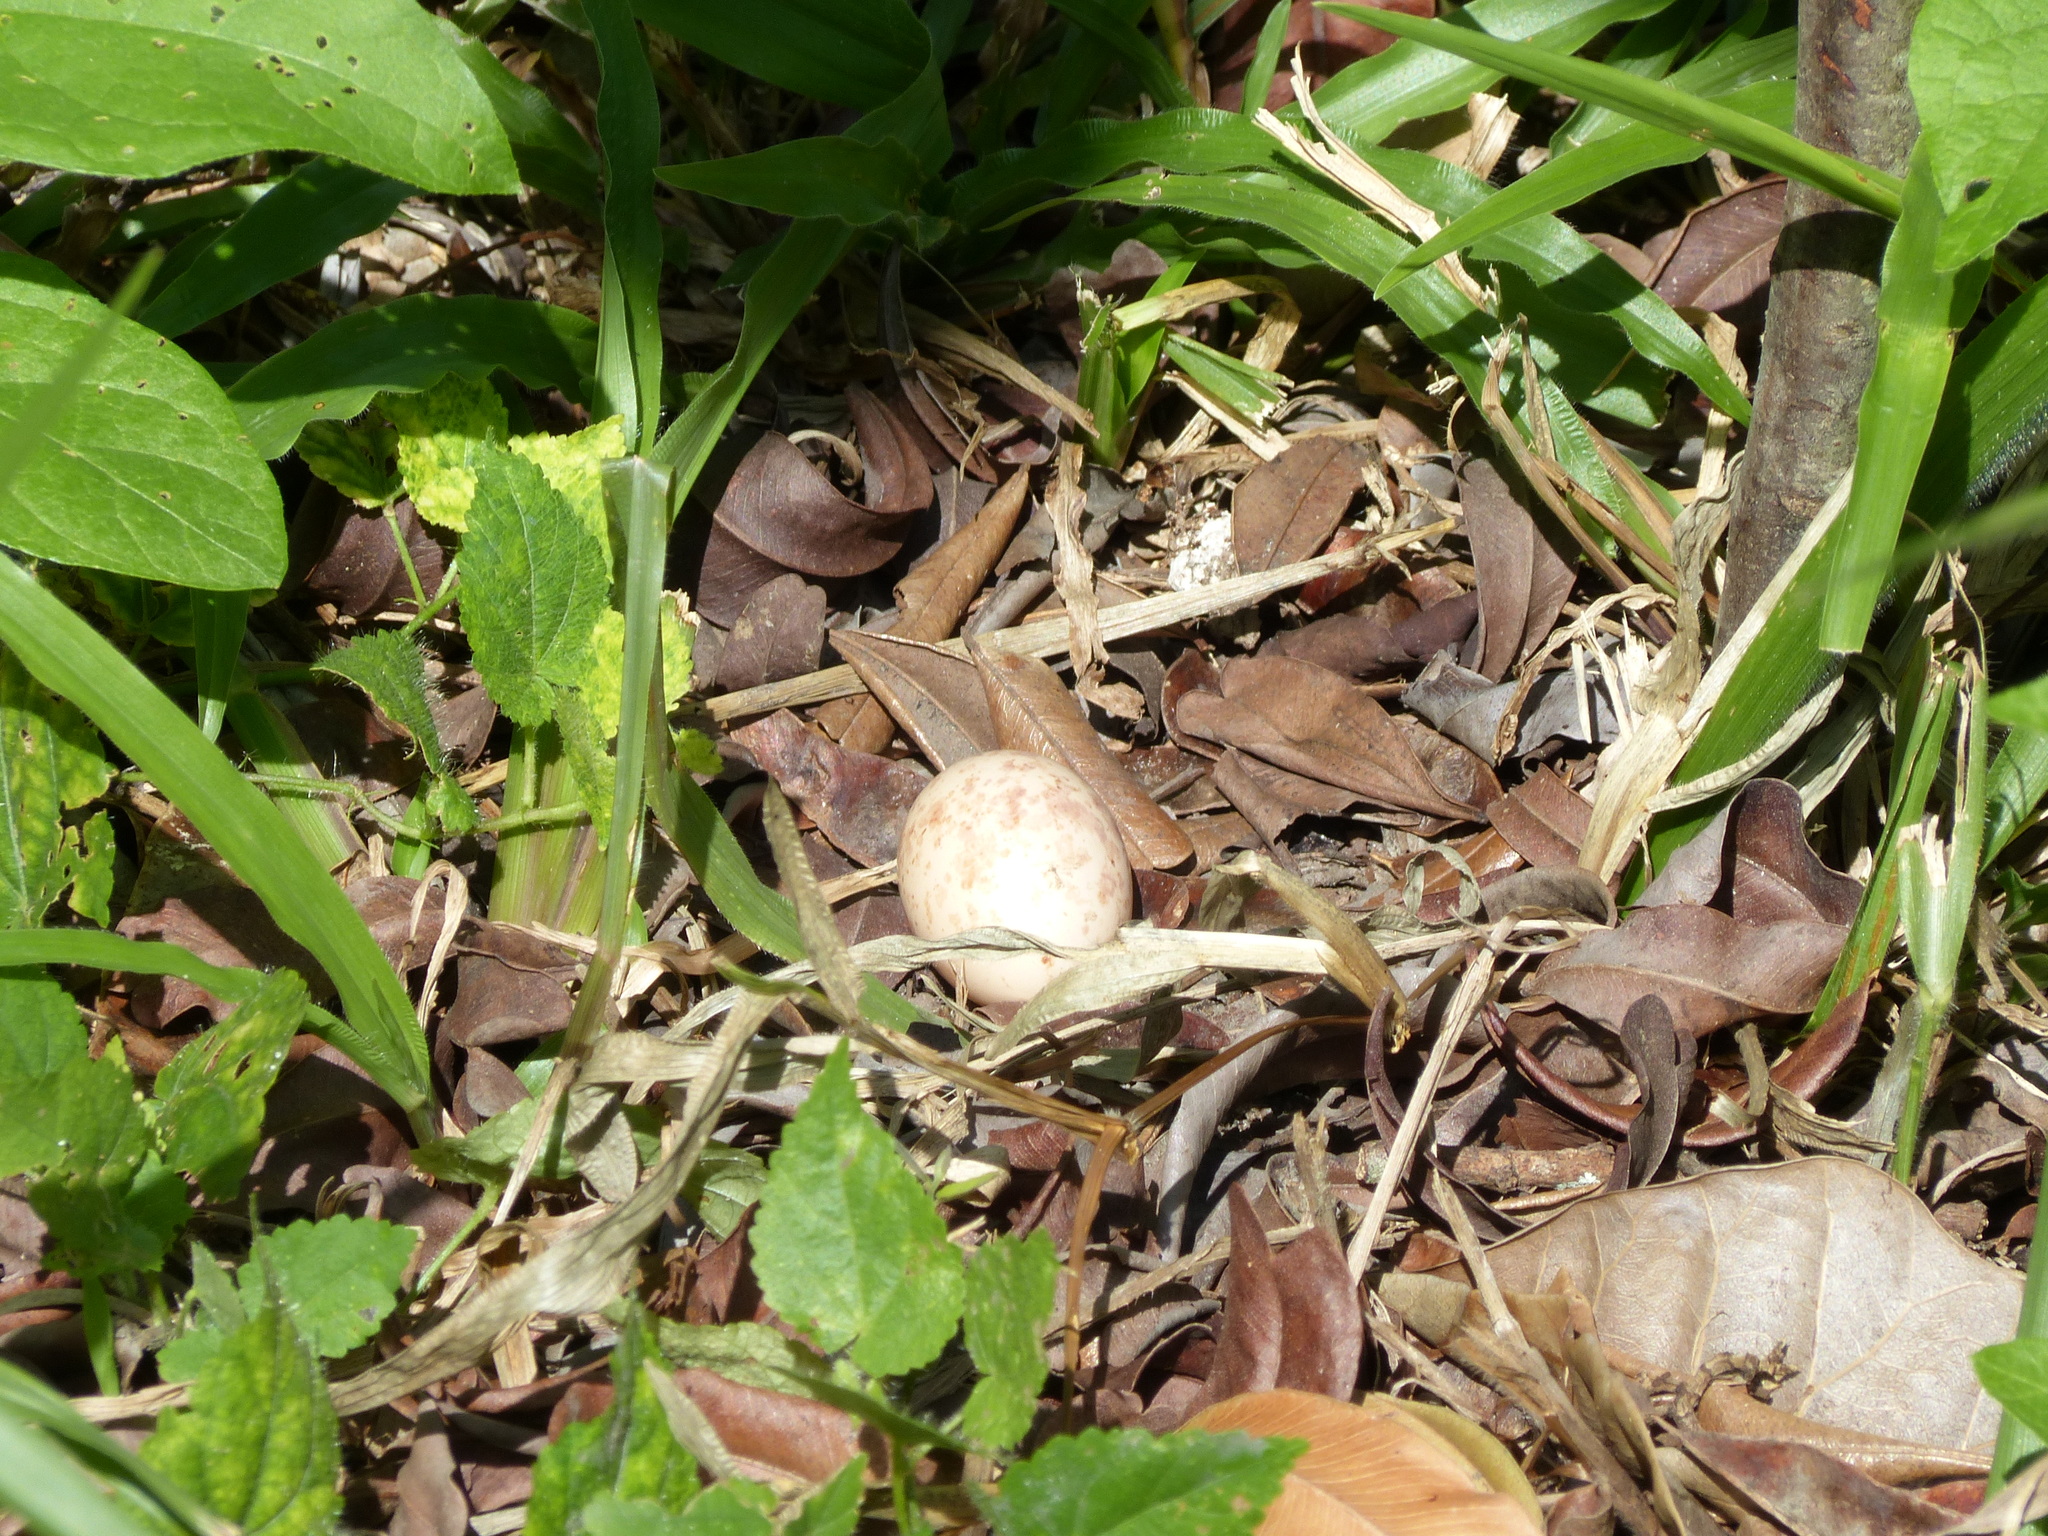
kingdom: Animalia
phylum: Chordata
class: Aves
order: Caprimulgiformes
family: Caprimulgidae
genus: Nyctidromus
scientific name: Nyctidromus albicollis
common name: Pauraque
